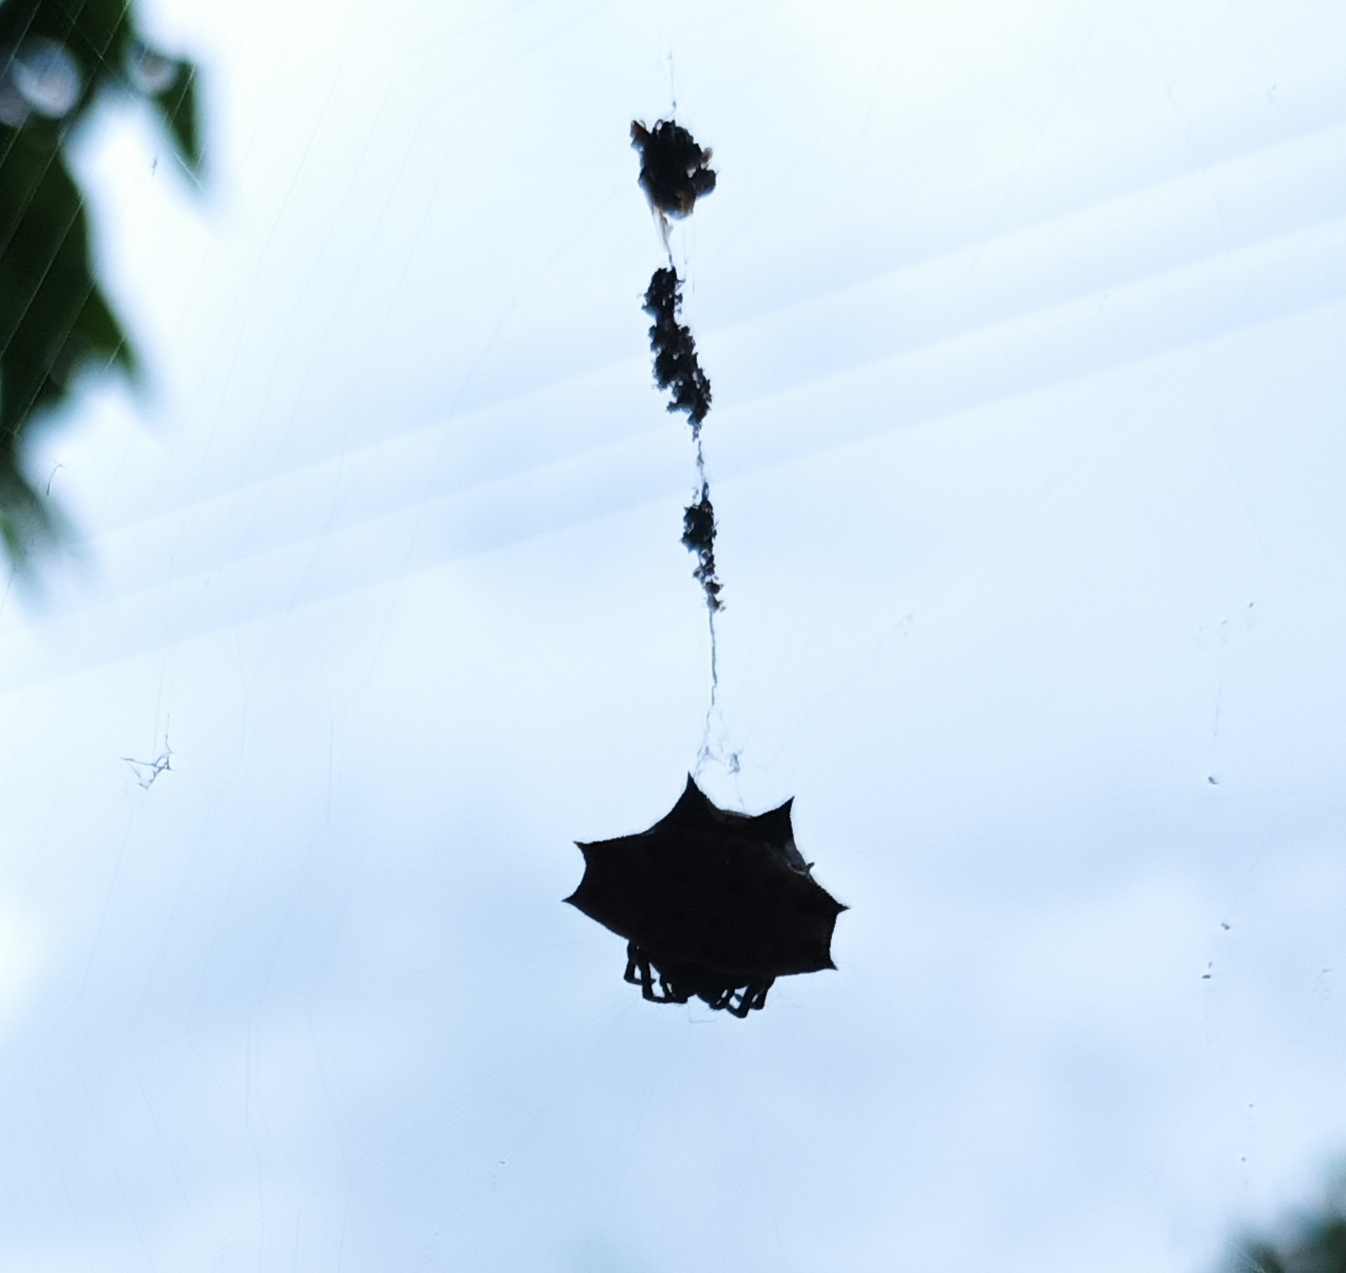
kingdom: Animalia
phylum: Arthropoda
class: Arachnida
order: Araneae
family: Araneidae
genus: Gasteracantha
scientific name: Gasteracantha cancriformis
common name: Orb weavers
